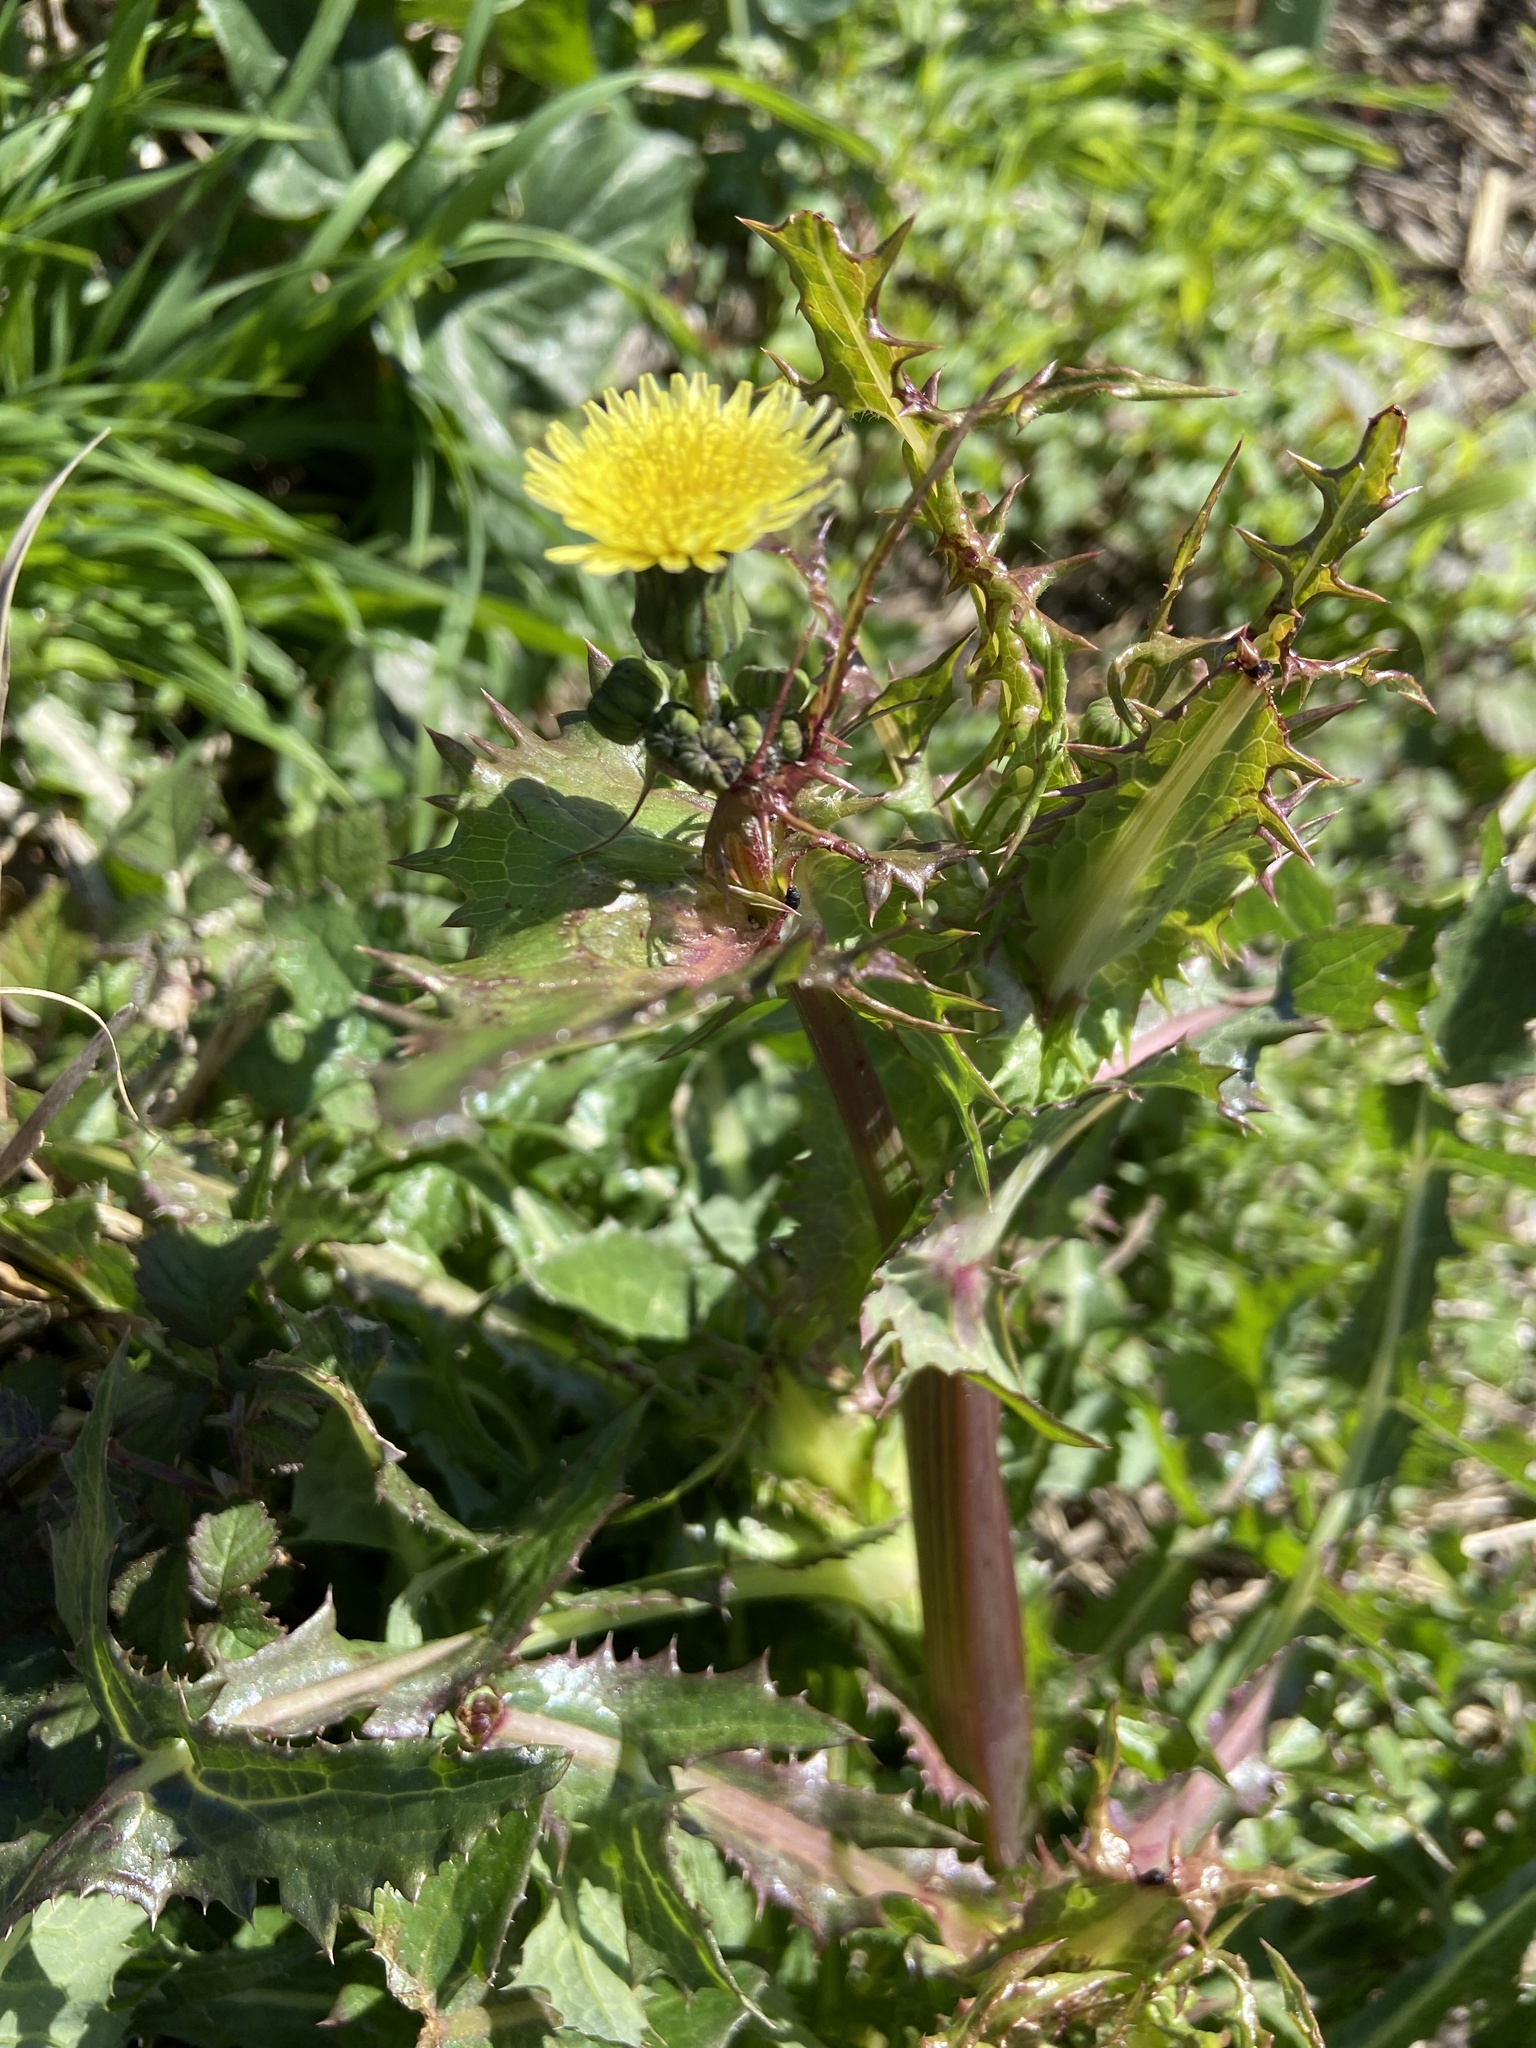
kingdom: Plantae
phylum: Tracheophyta
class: Magnoliopsida
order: Asterales
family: Asteraceae
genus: Sonchus
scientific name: Sonchus asper
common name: Prickly sow-thistle
